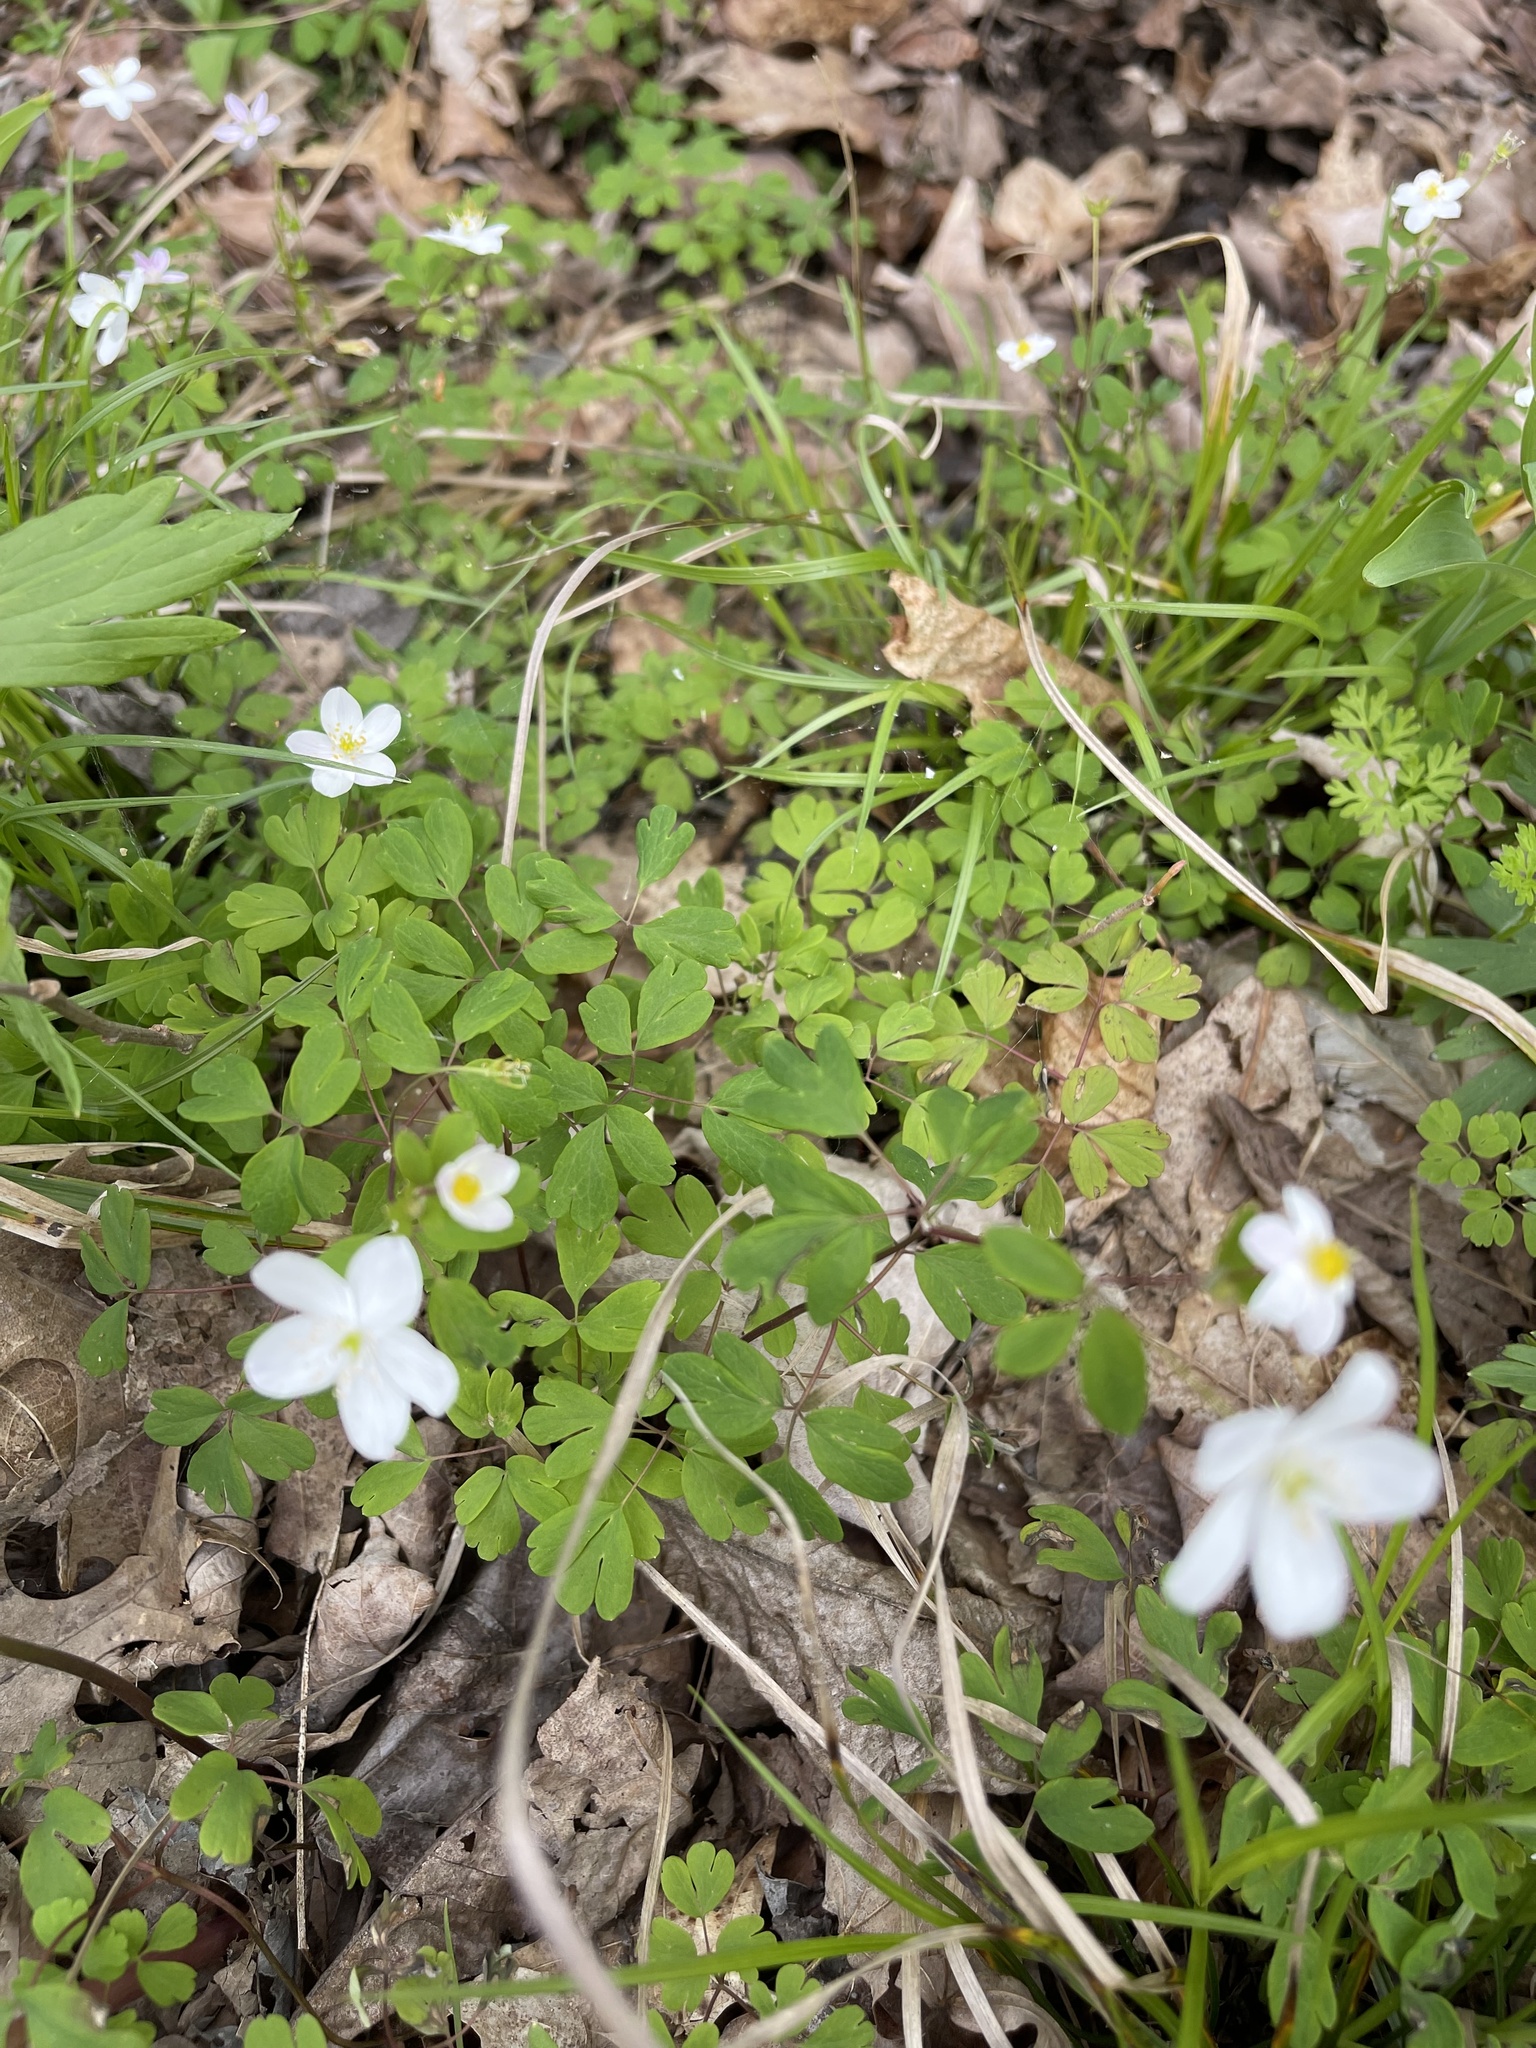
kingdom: Plantae
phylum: Tracheophyta
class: Magnoliopsida
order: Ranunculales
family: Ranunculaceae
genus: Enemion
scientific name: Enemion biternatum
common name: Eastern false rue-anemone
